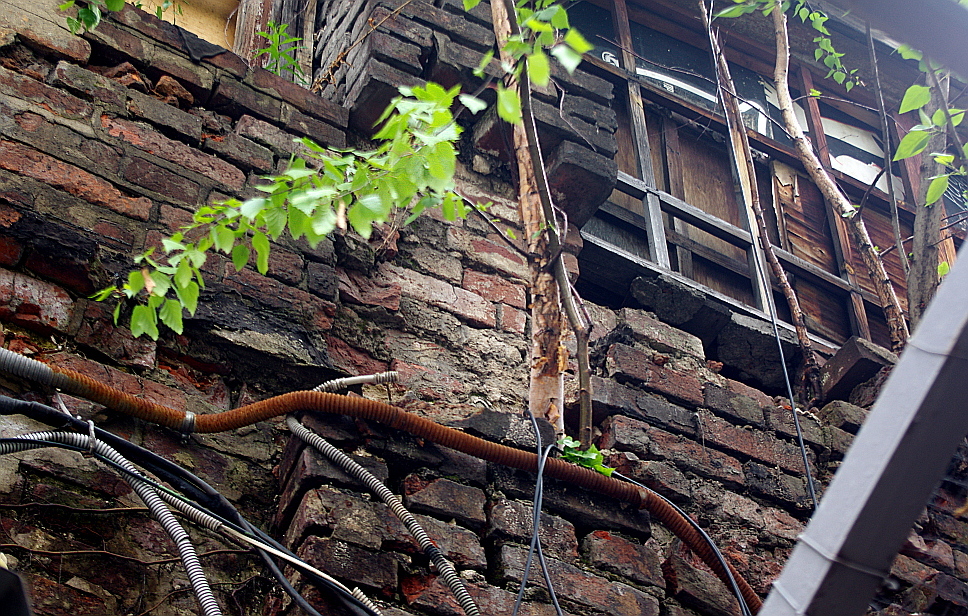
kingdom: Plantae
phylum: Tracheophyta
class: Magnoliopsida
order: Fagales
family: Betulaceae
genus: Betula
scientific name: Betula pendula
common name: Silver birch
